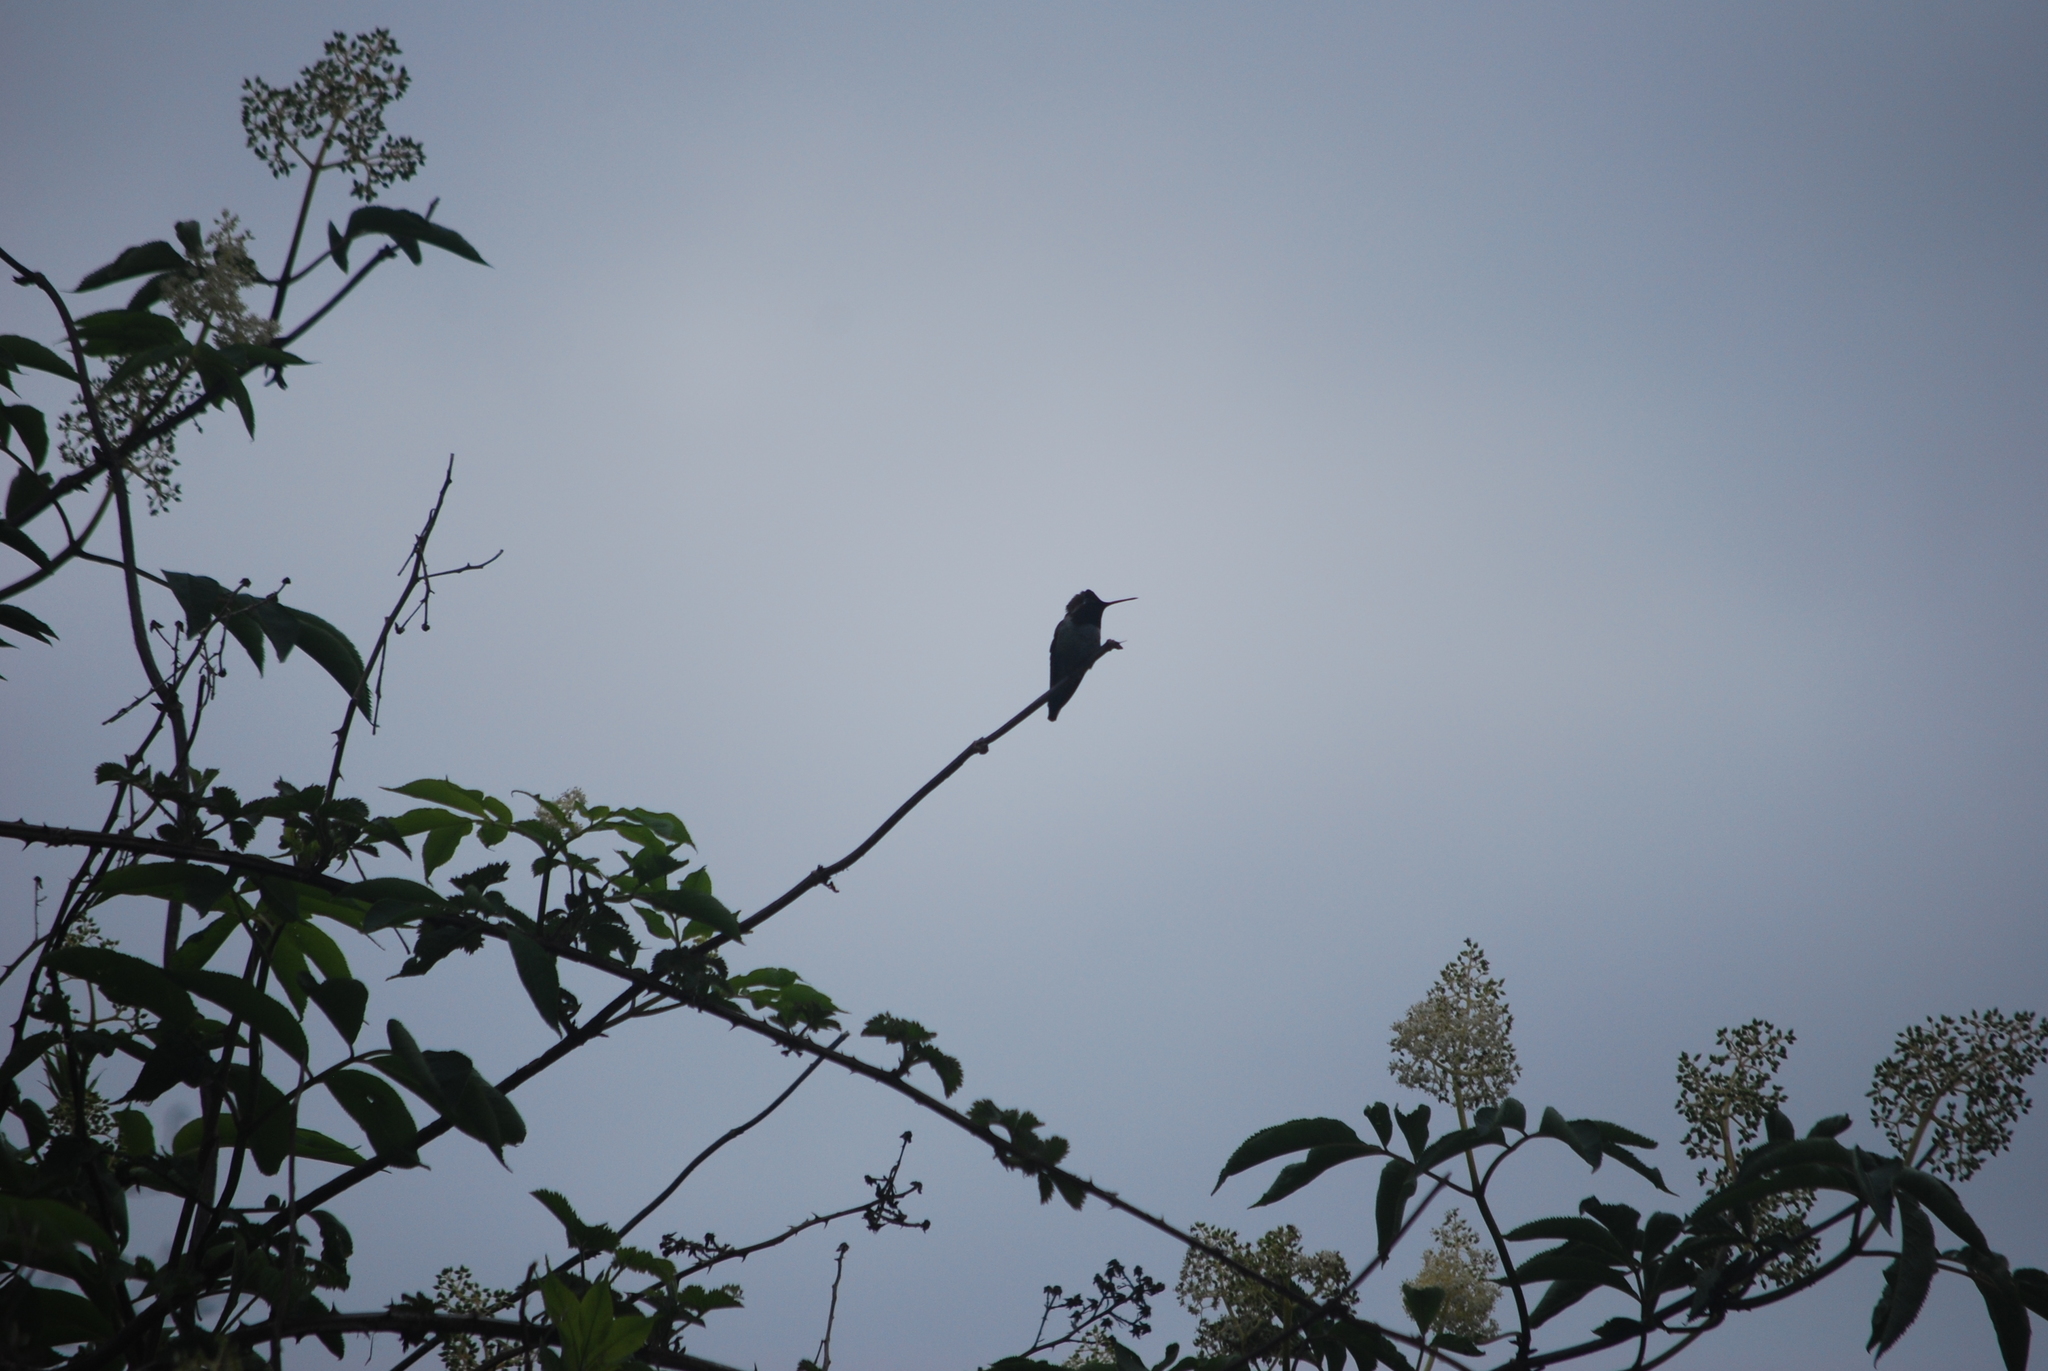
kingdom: Animalia
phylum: Chordata
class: Aves
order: Apodiformes
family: Trochilidae
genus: Calypte
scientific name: Calypte anna
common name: Anna's hummingbird
